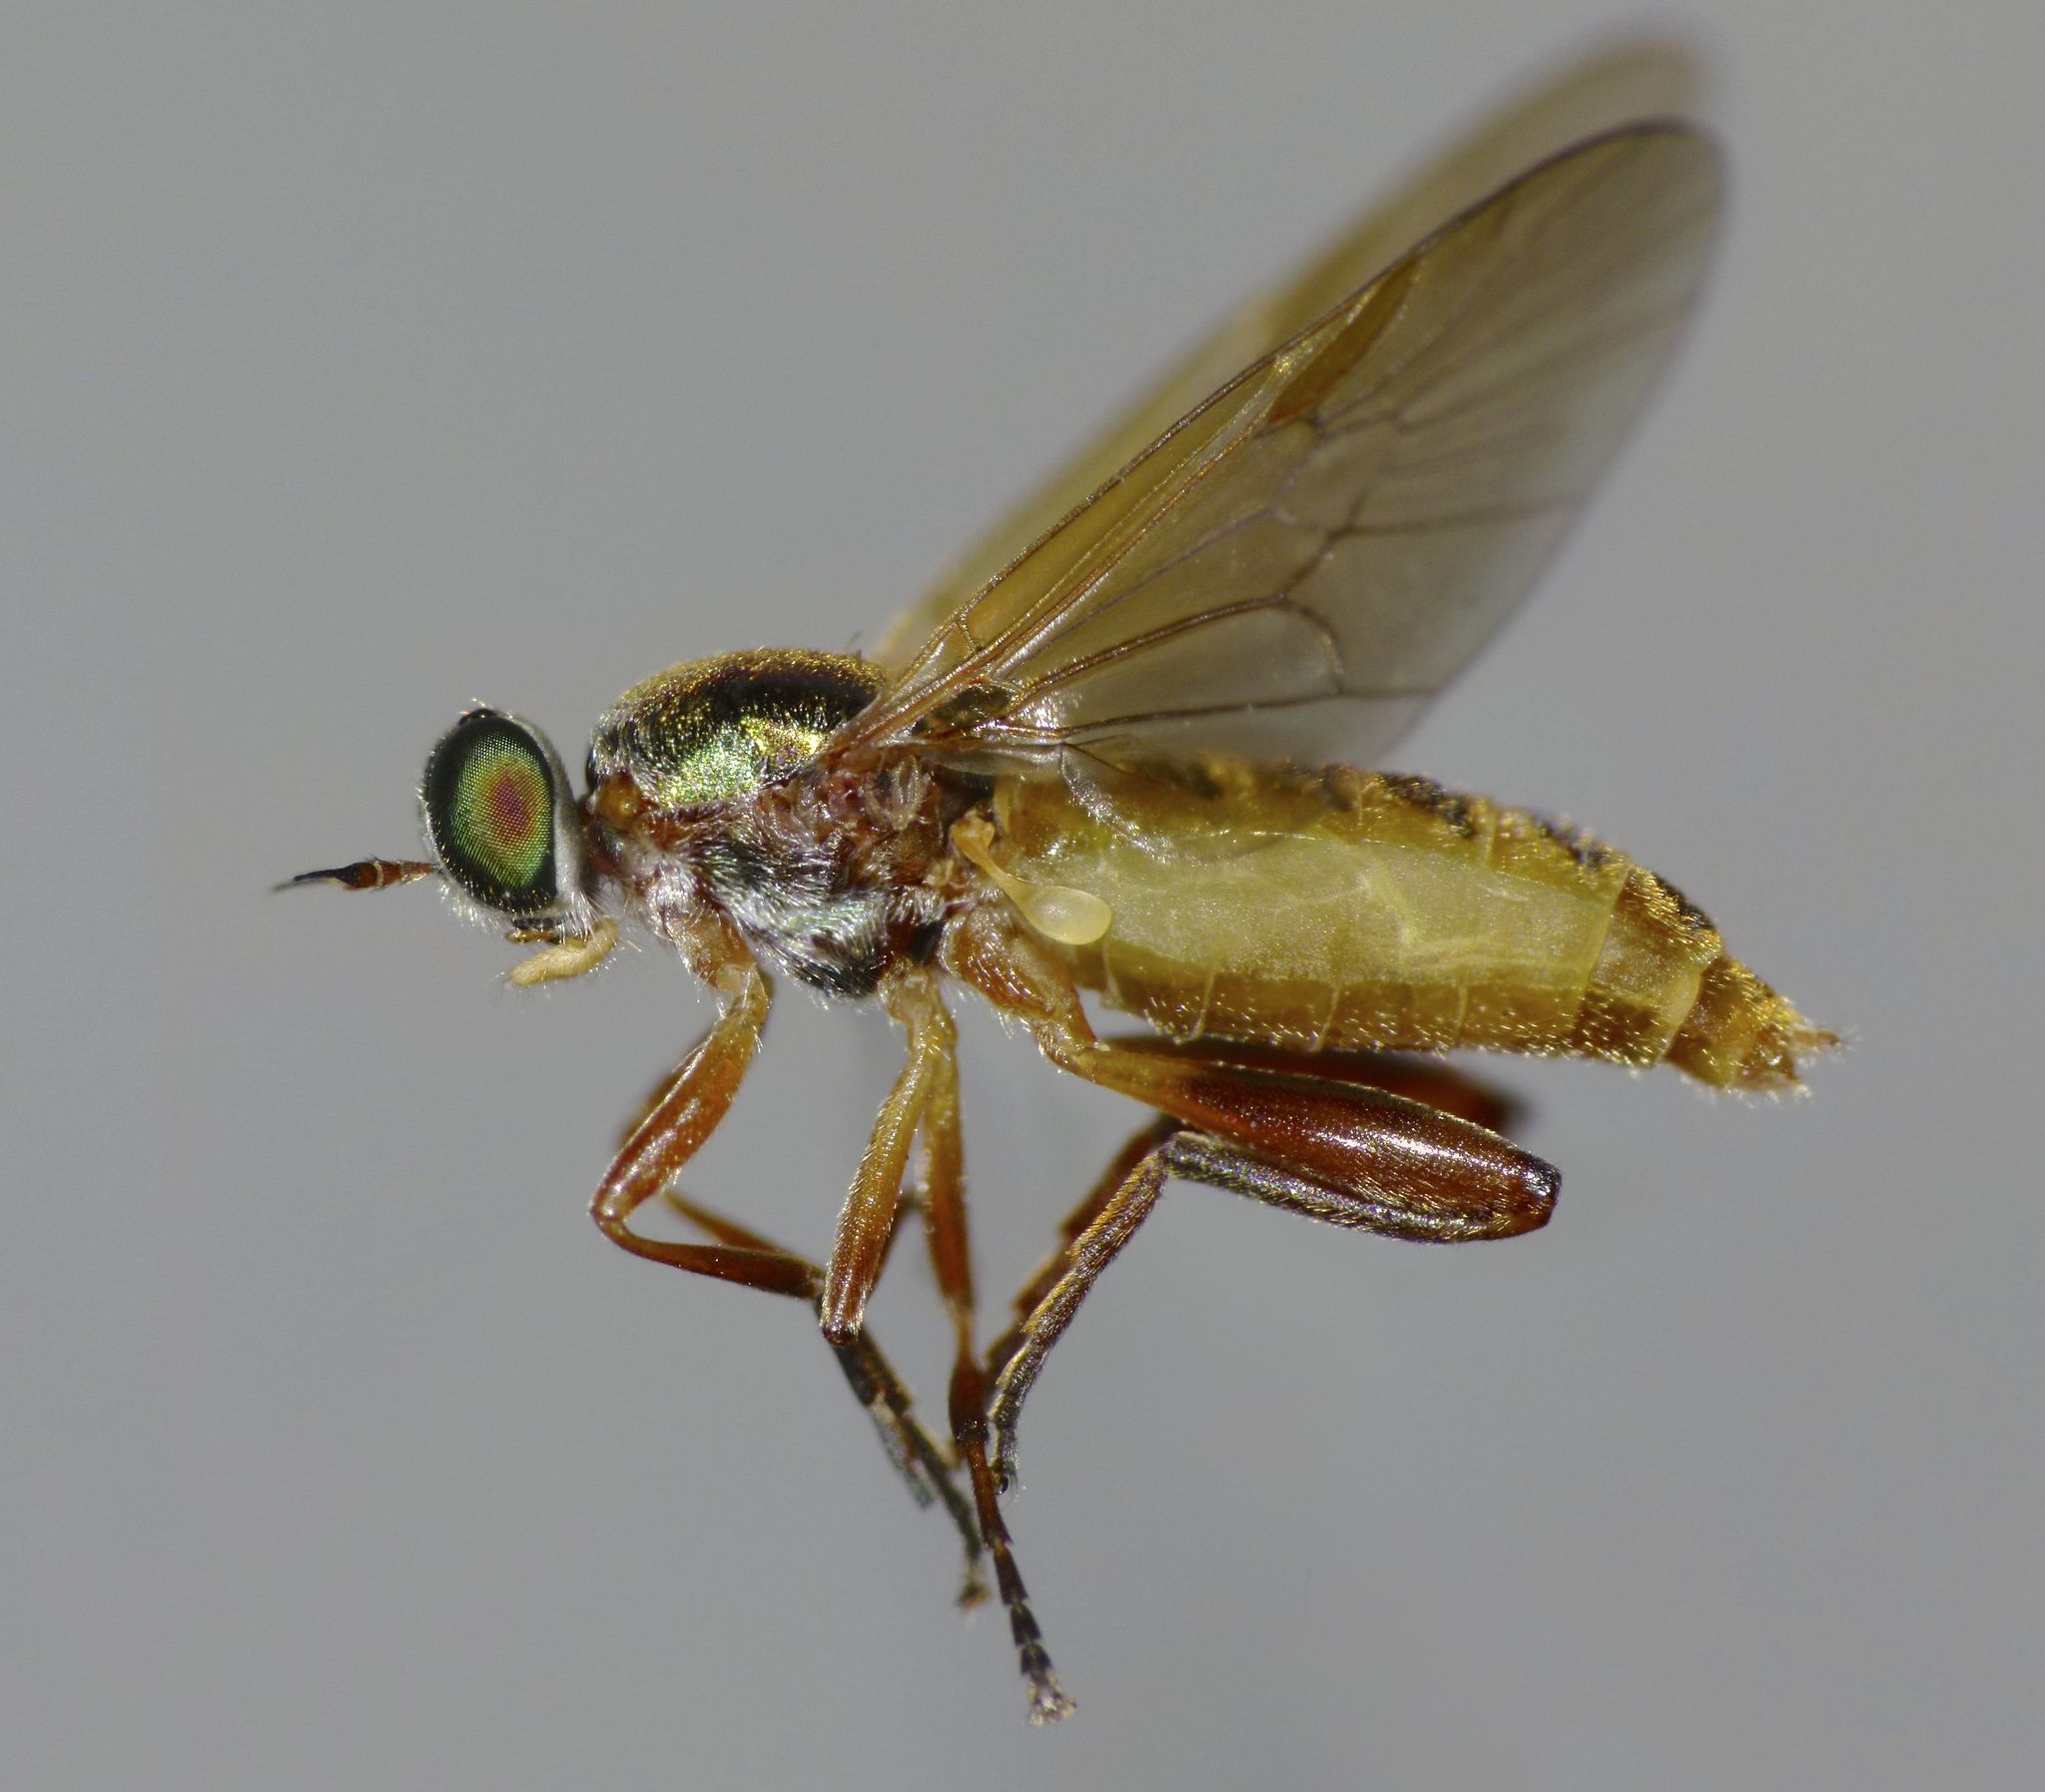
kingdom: Animalia
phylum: Arthropoda
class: Insecta
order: Diptera
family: Stratiomyidae
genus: Neactina
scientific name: Neactina opposita
